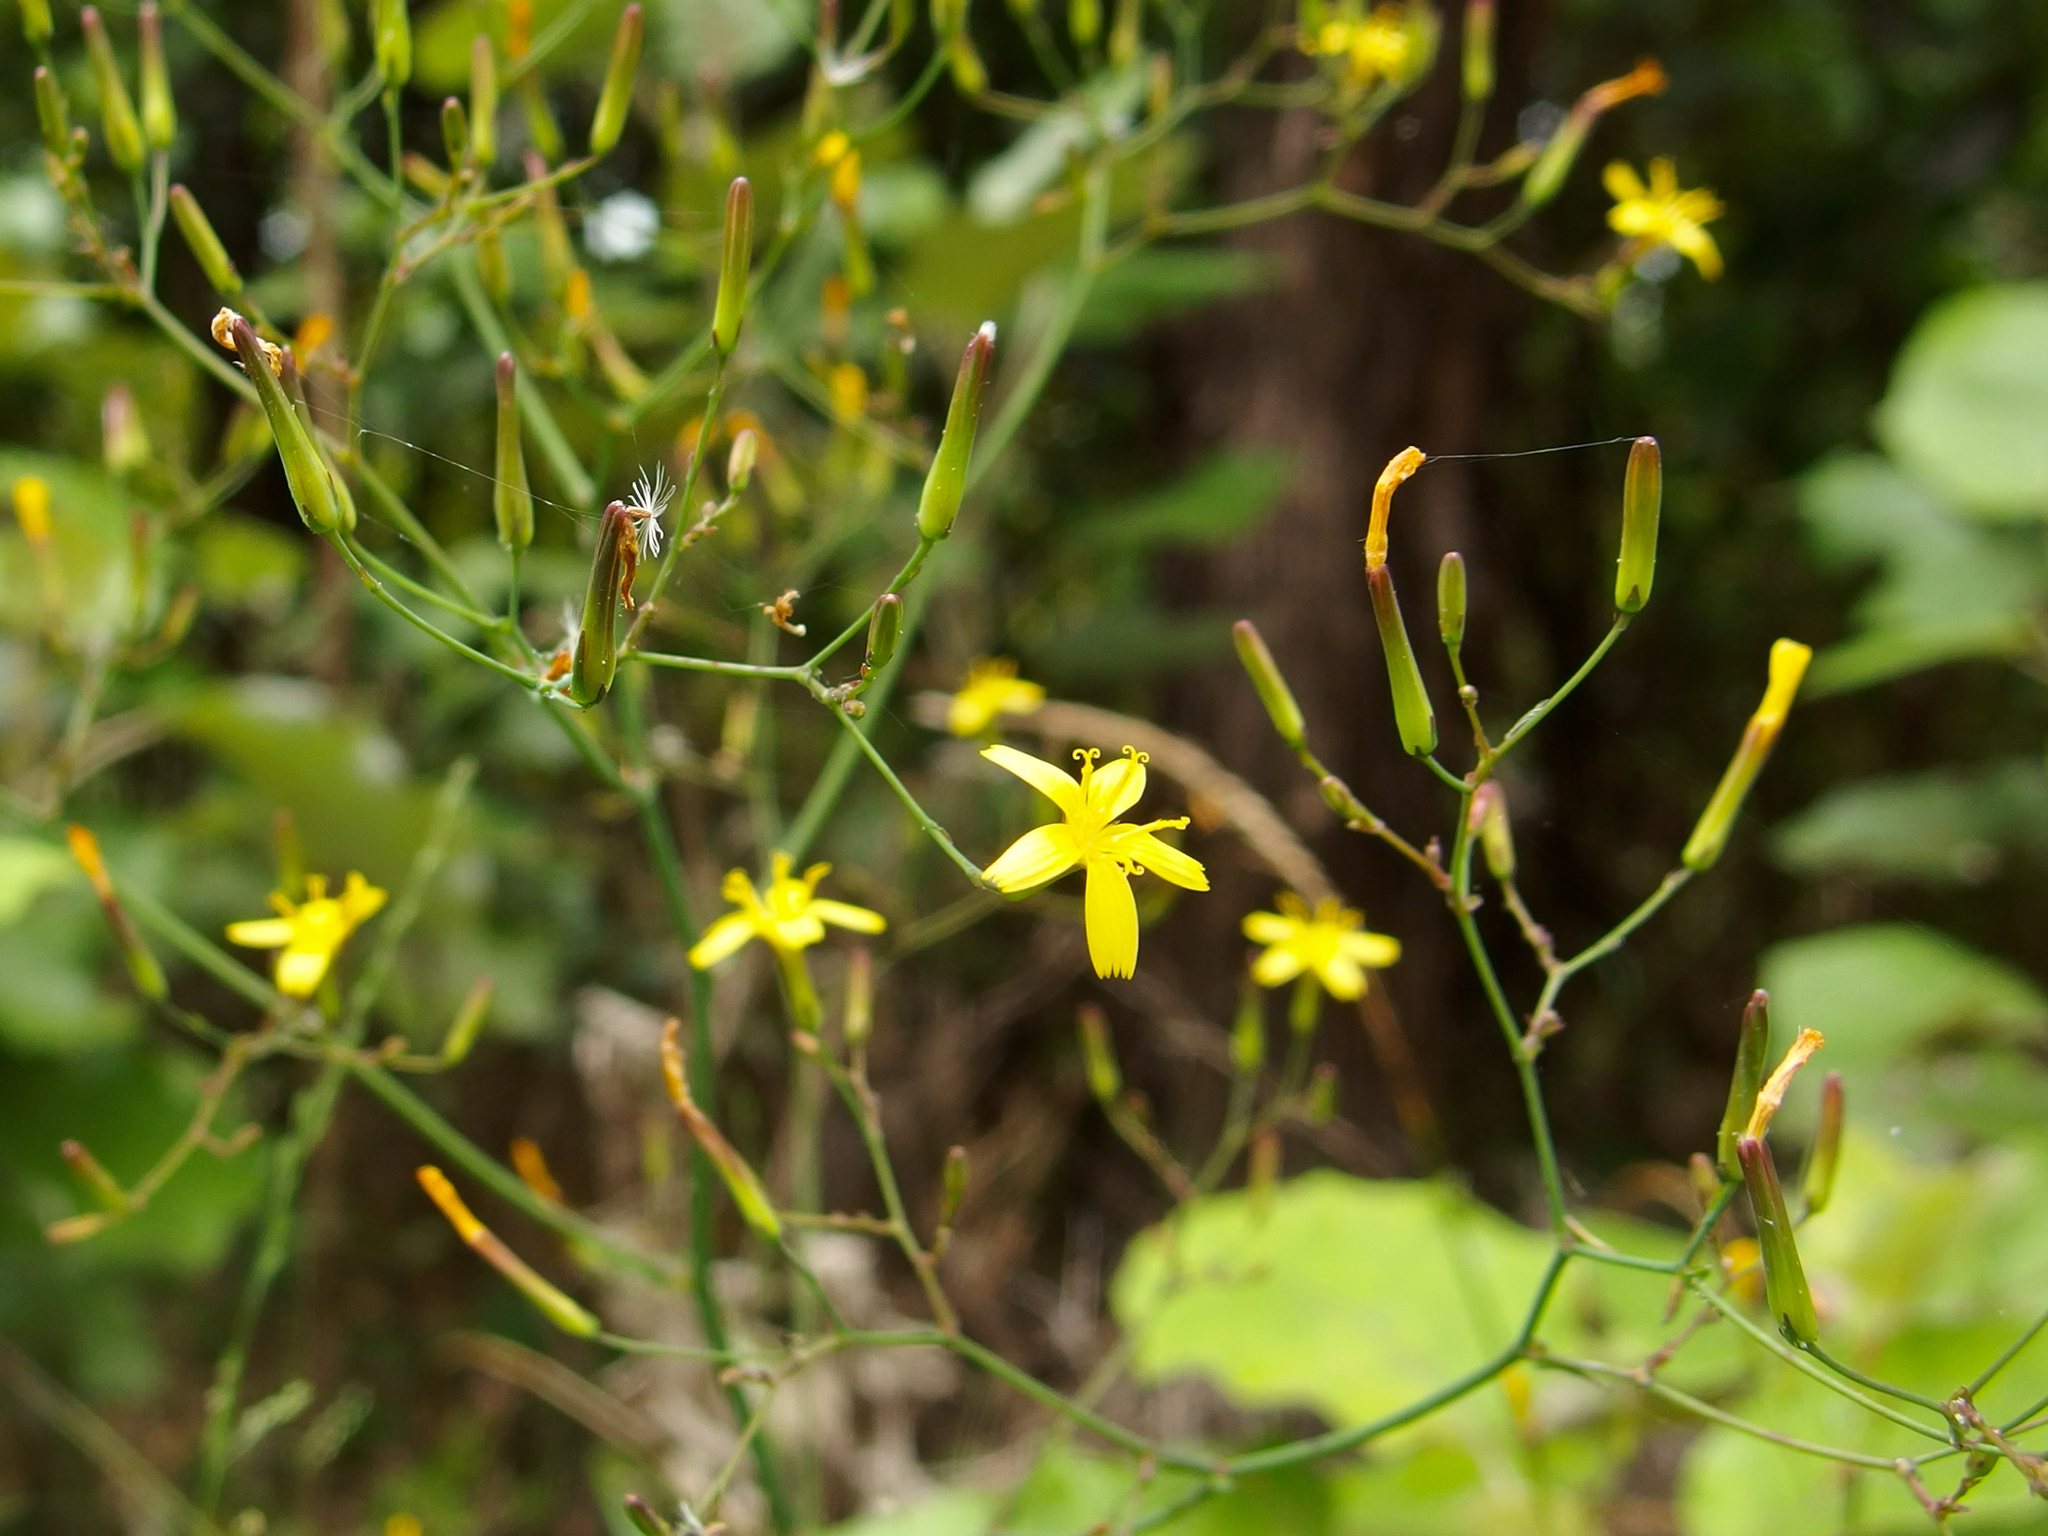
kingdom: Plantae
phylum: Tracheophyta
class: Magnoliopsida
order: Asterales
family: Asteraceae
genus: Mycelis
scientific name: Mycelis muralis
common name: Wall lettuce
